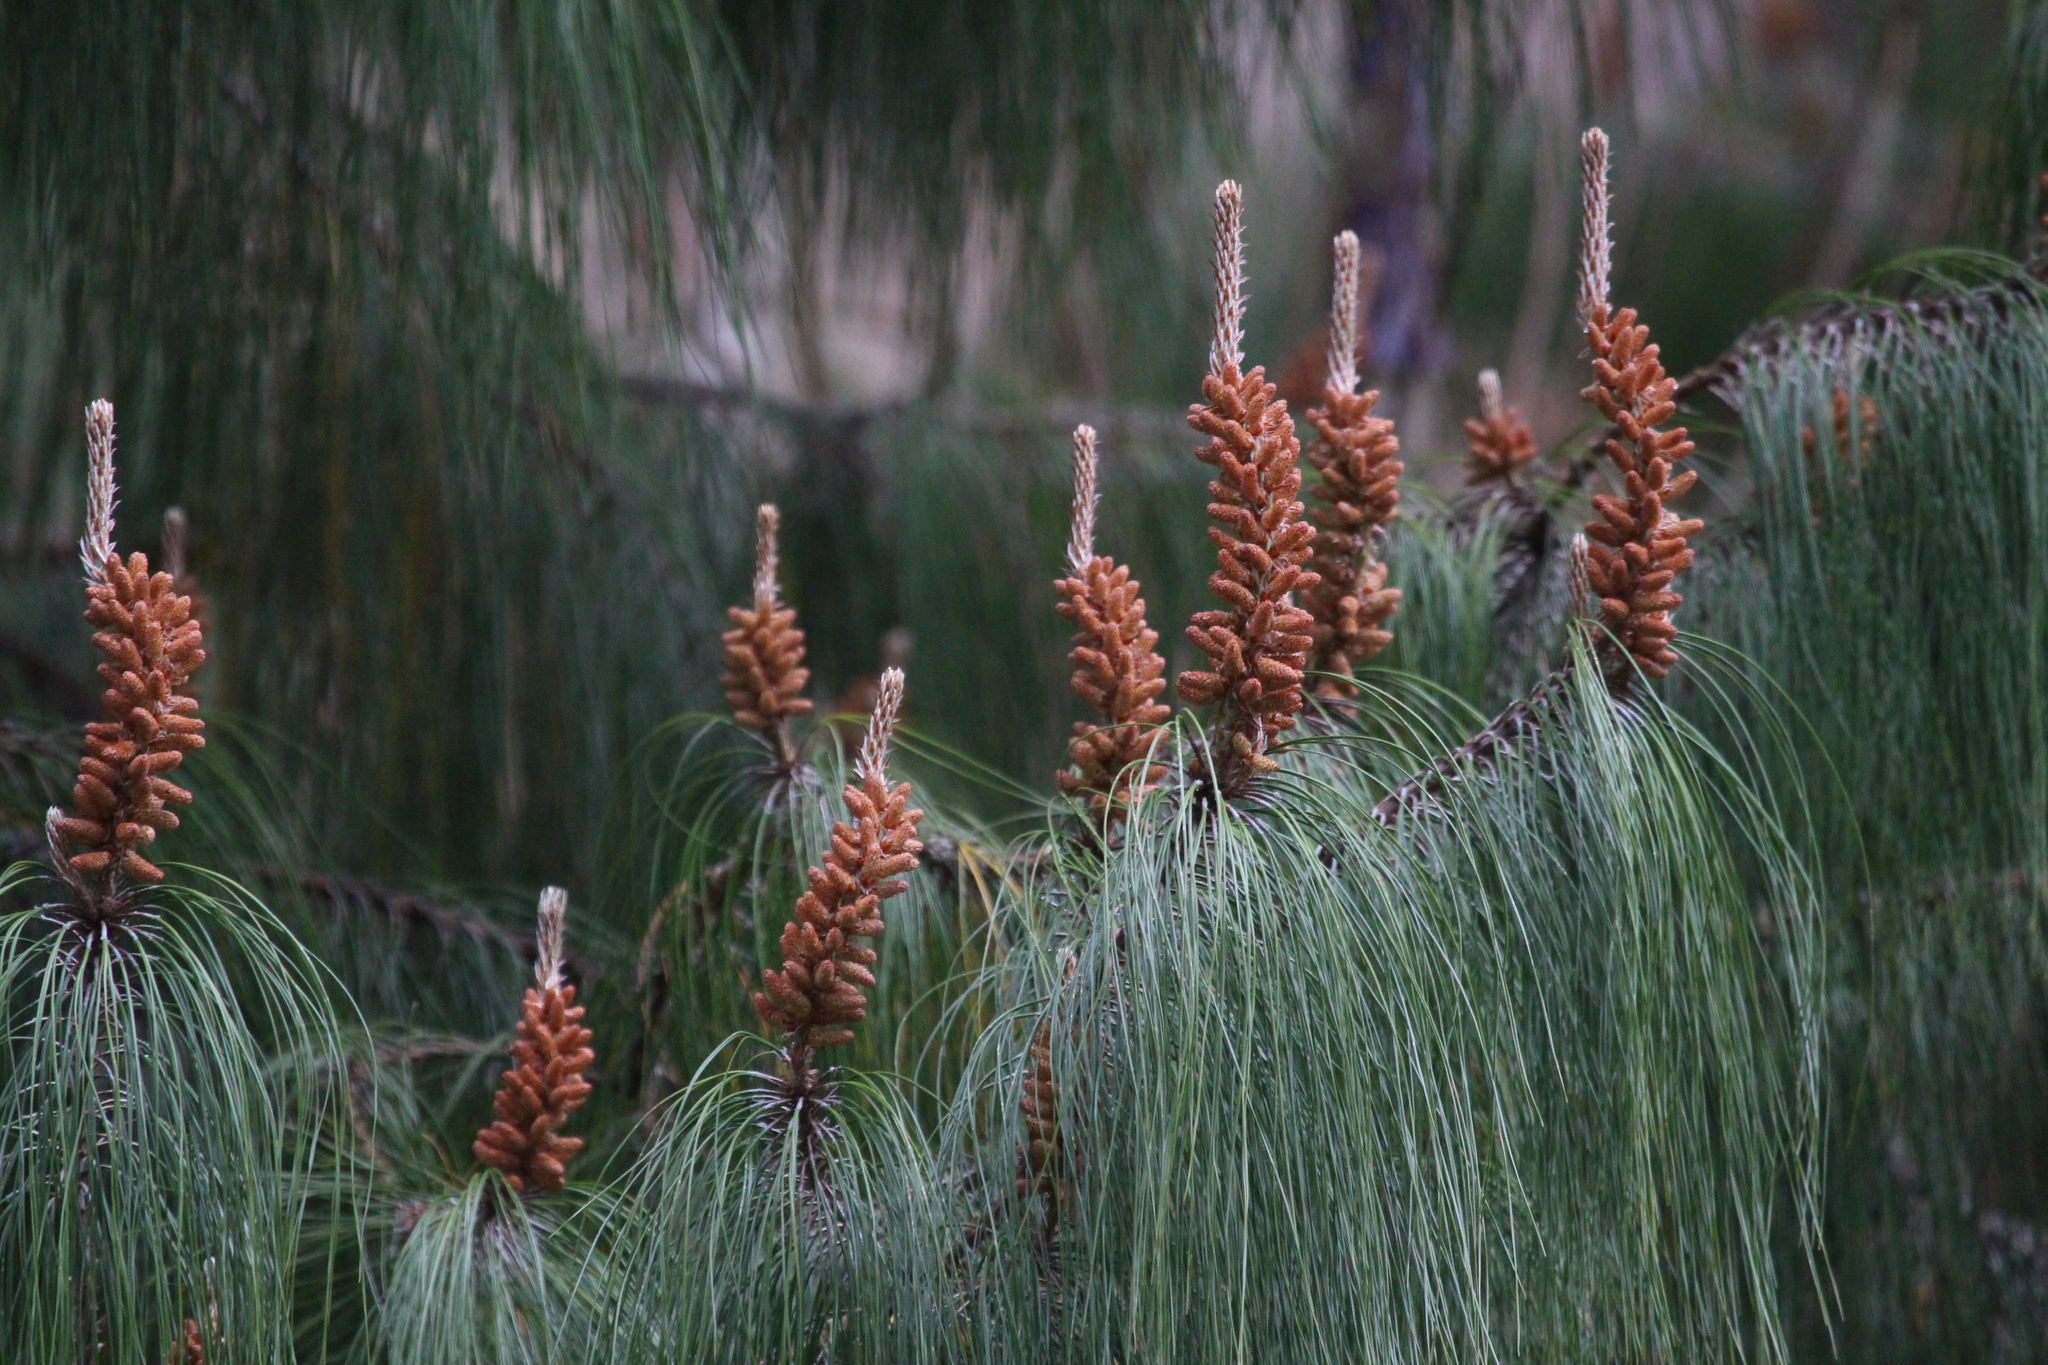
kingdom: Plantae
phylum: Tracheophyta
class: Pinopsida
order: Pinales
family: Pinaceae
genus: Pinus
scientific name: Pinus patula
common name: Mexican weeping pine
